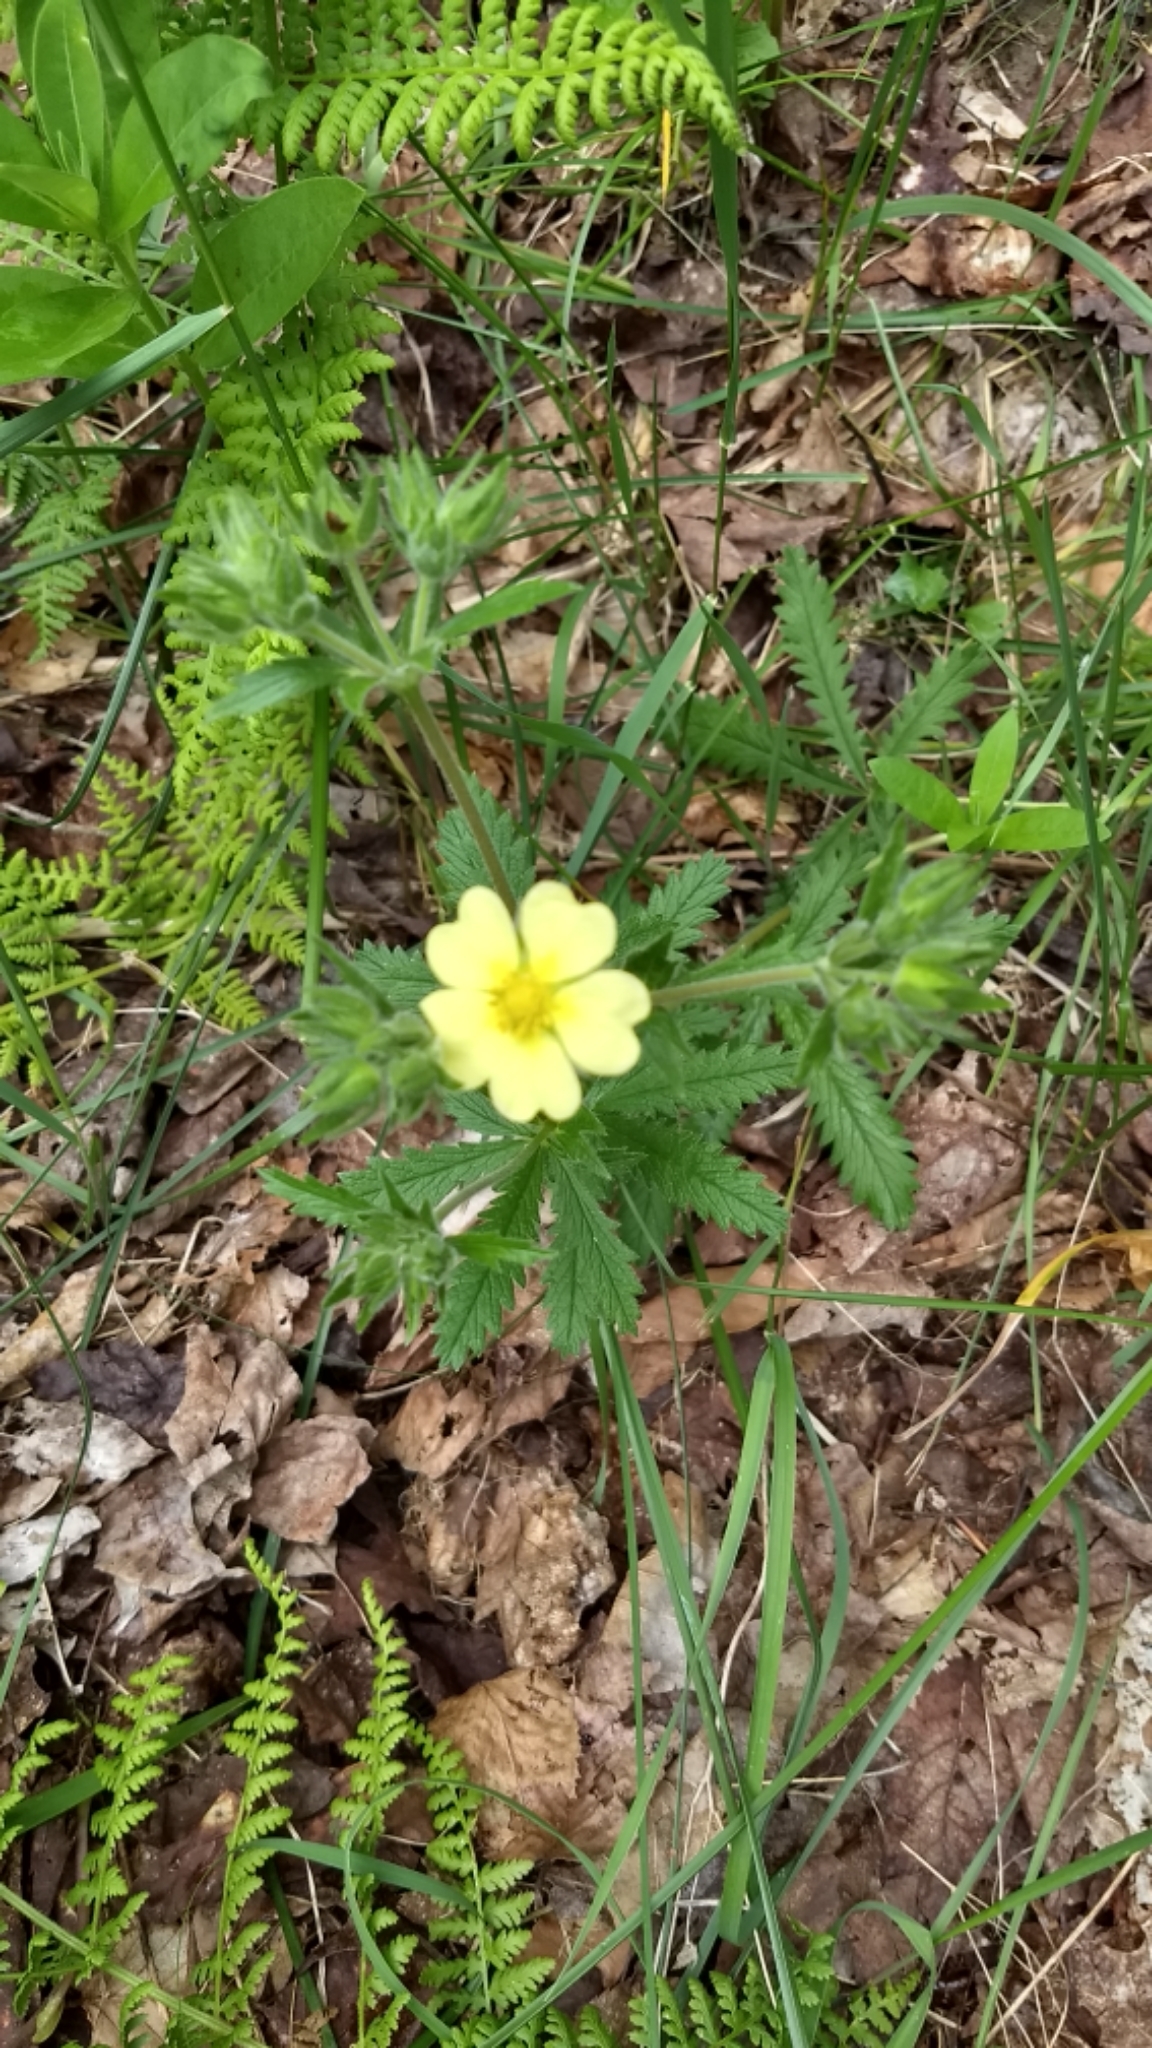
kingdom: Plantae
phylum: Tracheophyta
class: Magnoliopsida
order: Rosales
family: Rosaceae
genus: Potentilla
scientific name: Potentilla recta
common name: Sulphur cinquefoil
